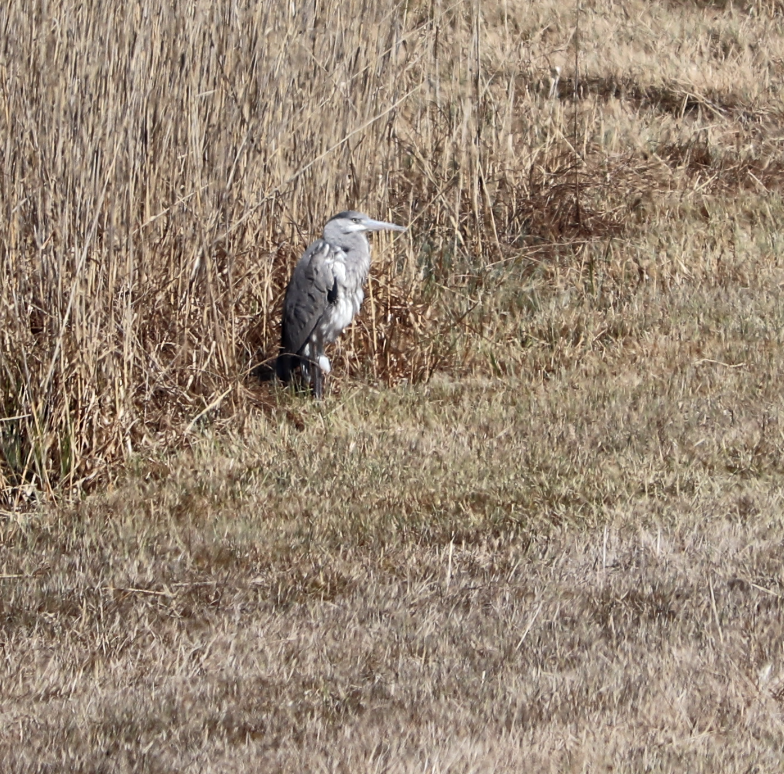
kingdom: Animalia
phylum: Chordata
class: Aves
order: Pelecaniformes
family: Ardeidae
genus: Ardea
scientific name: Ardea cinerea
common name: Grey heron
